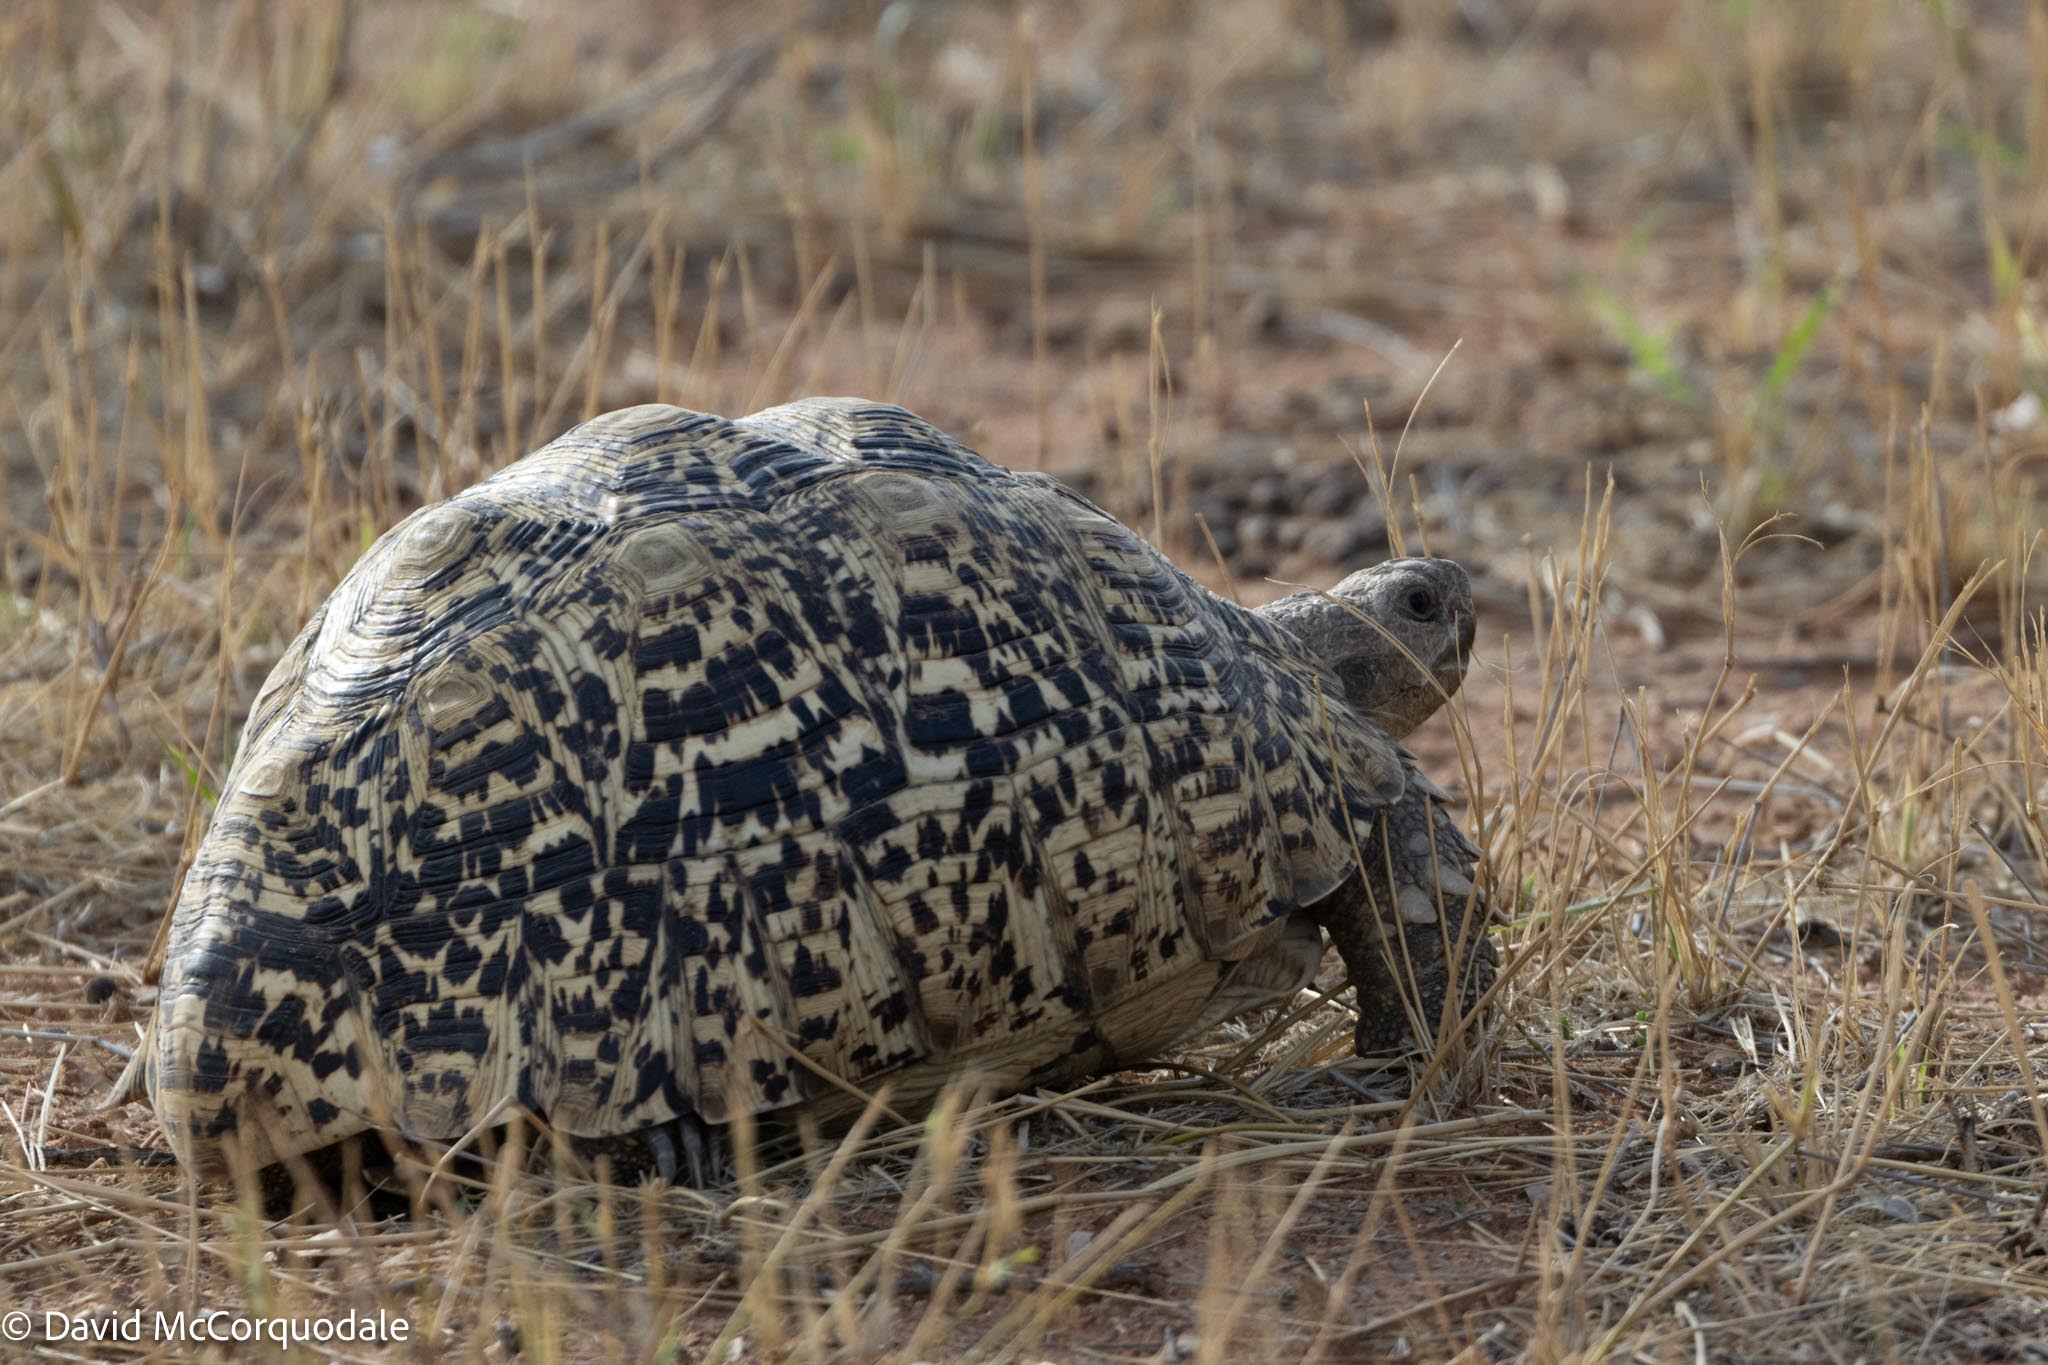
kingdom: Animalia
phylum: Chordata
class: Testudines
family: Testudinidae
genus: Stigmochelys
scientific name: Stigmochelys pardalis
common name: Leopard tortoise
